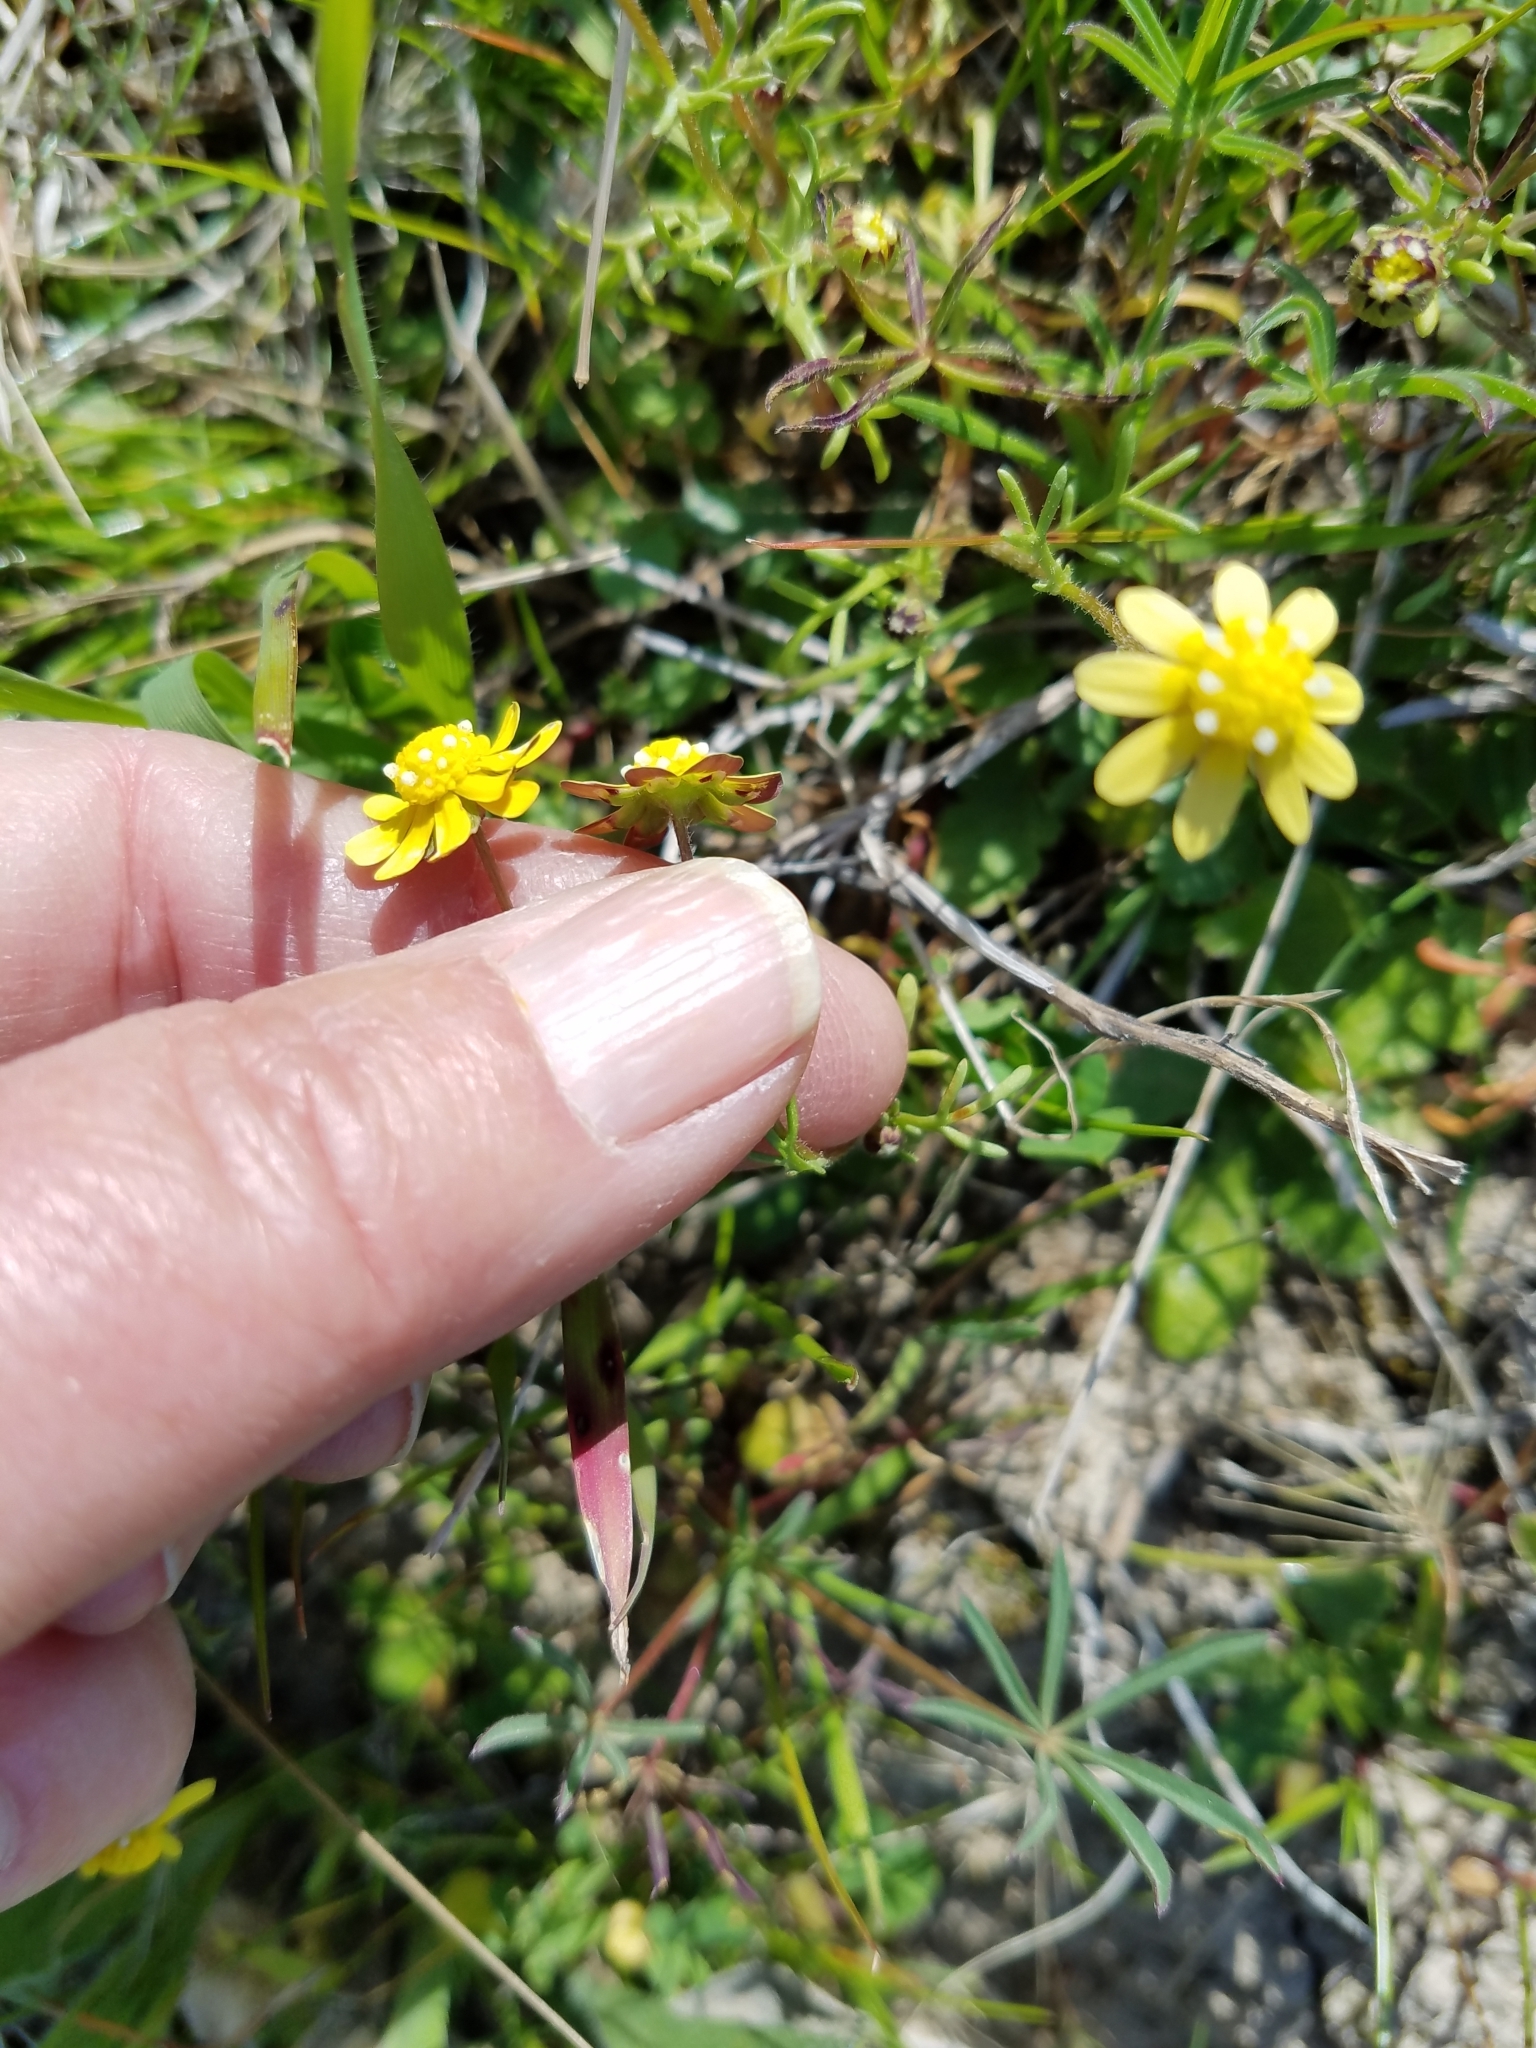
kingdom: Plantae
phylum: Tracheophyta
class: Magnoliopsida
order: Asterales
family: Asteraceae
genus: Blennosperma
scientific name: Blennosperma nanum
